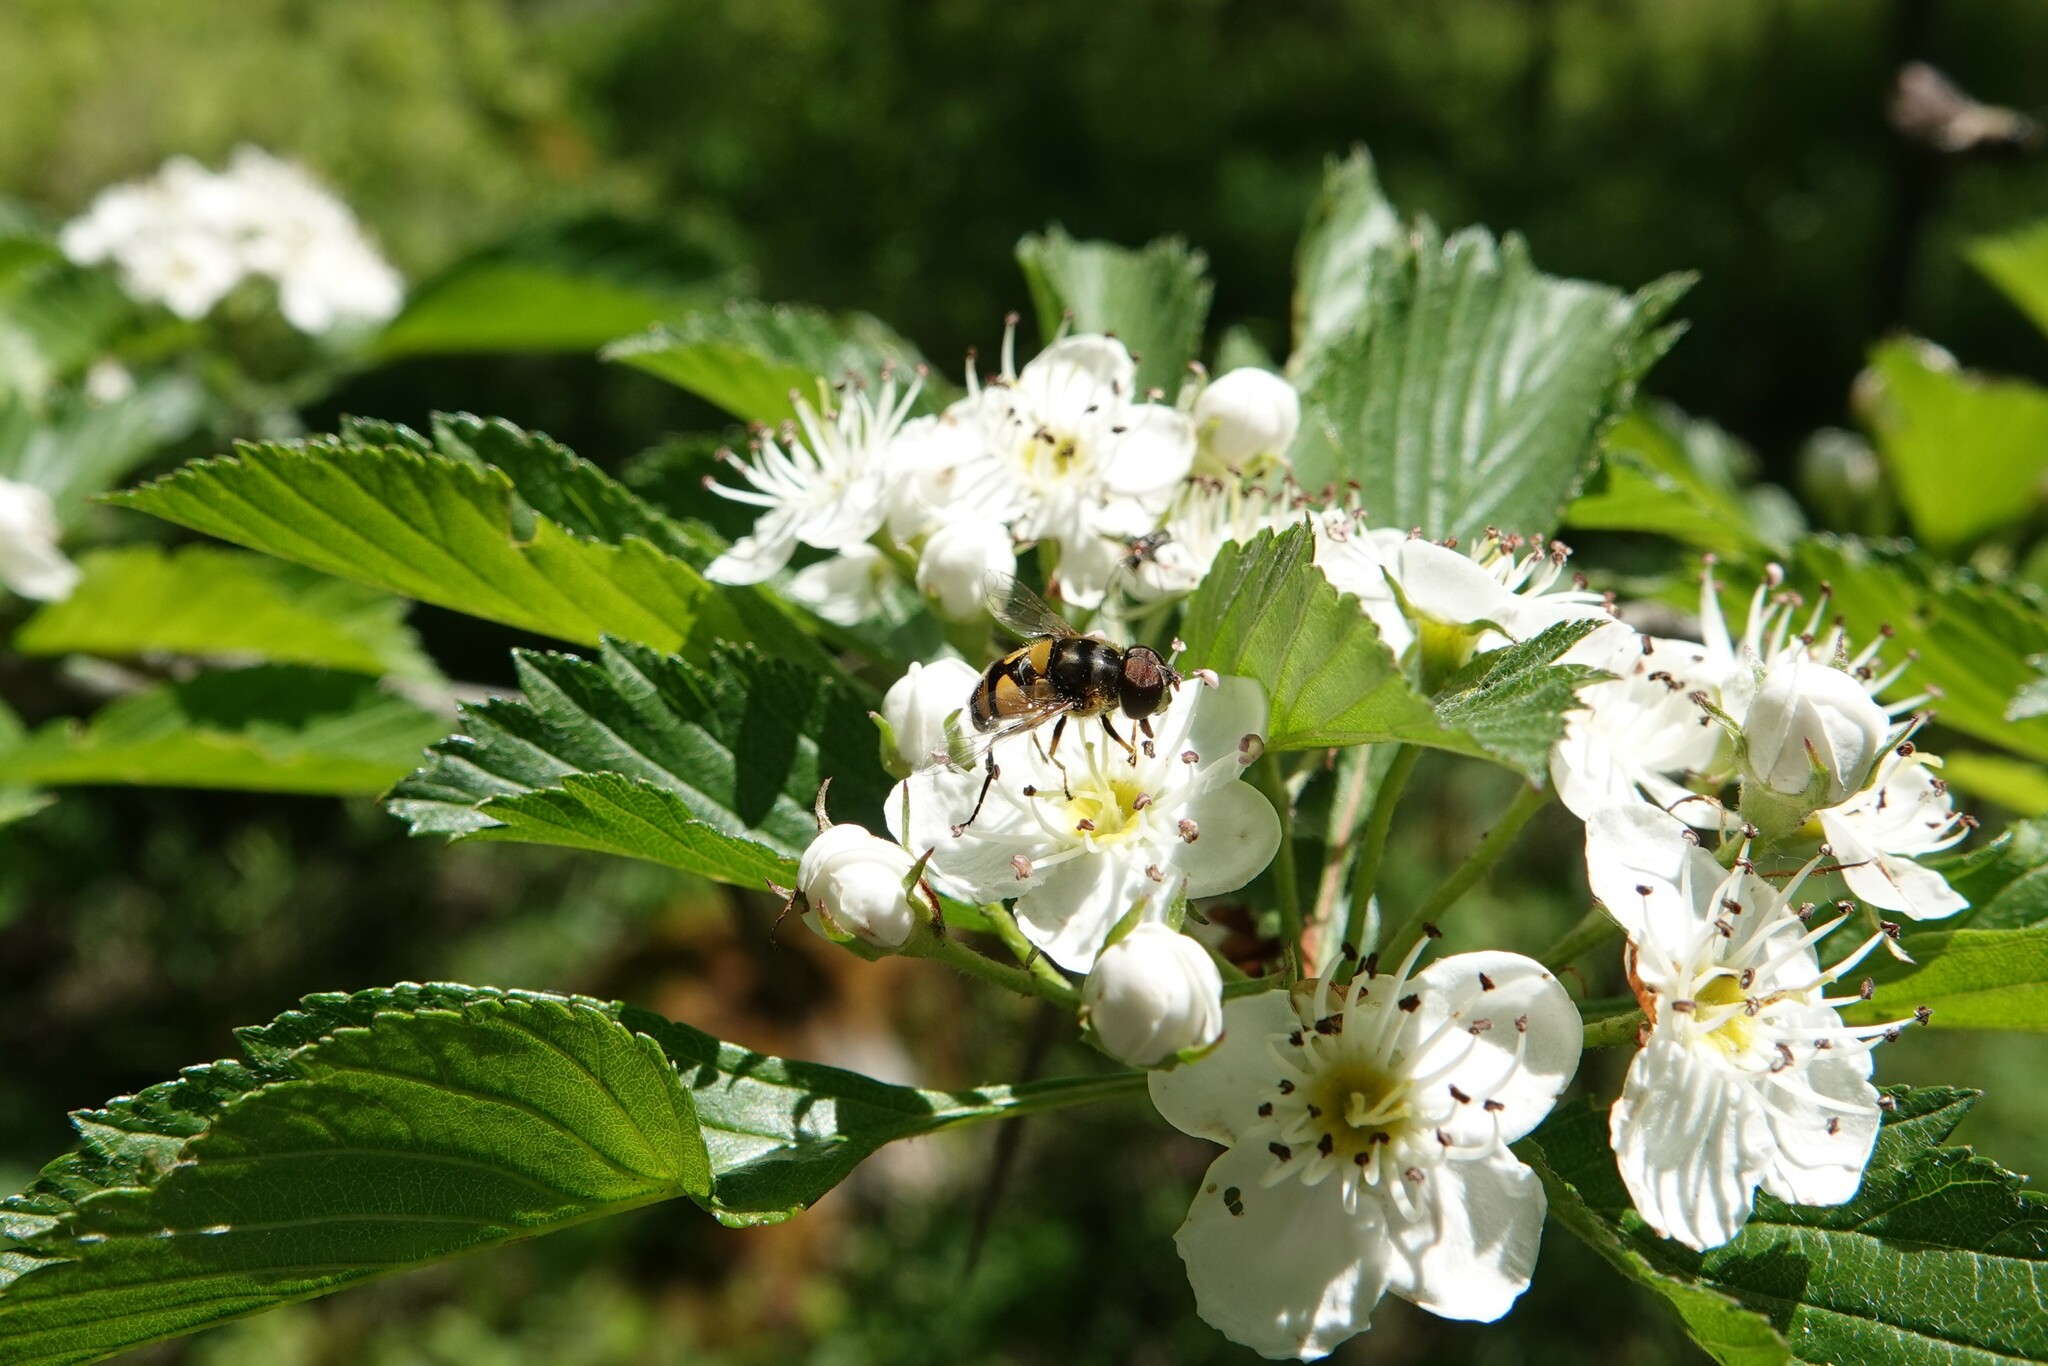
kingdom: Animalia
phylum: Arthropoda
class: Insecta
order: Diptera
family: Syrphidae
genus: Eristalis
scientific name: Eristalis transversa
